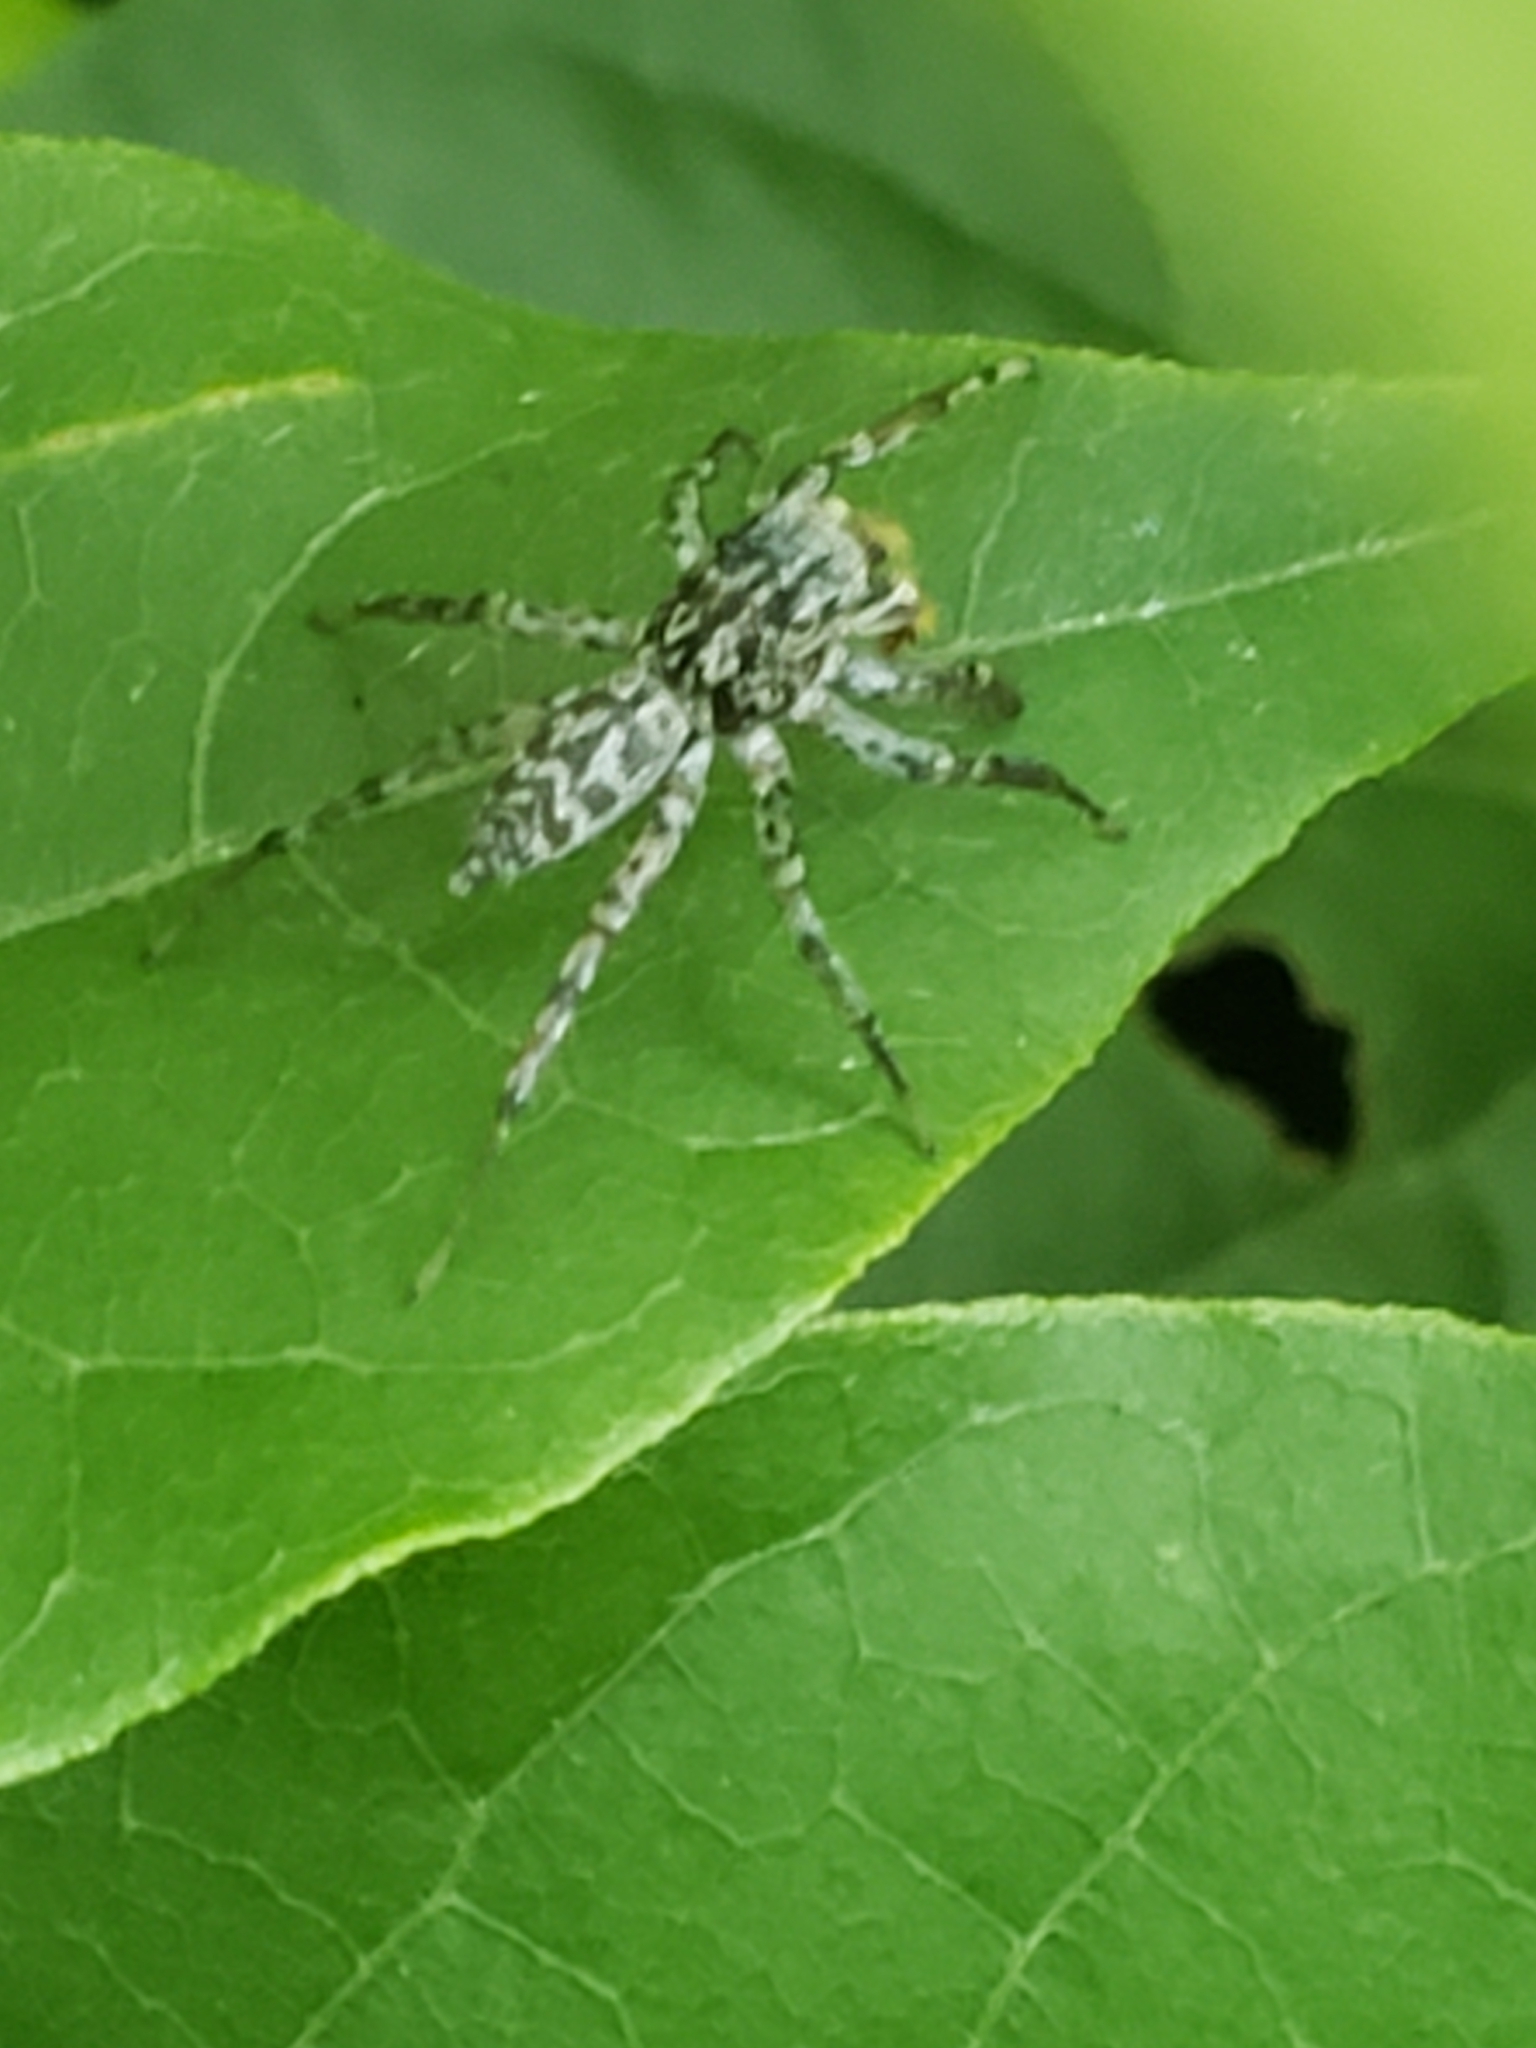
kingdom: Animalia
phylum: Arthropoda
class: Arachnida
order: Araneae
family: Salticidae
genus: Maevia
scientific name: Maevia inclemens
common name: Dimorphic jumper
